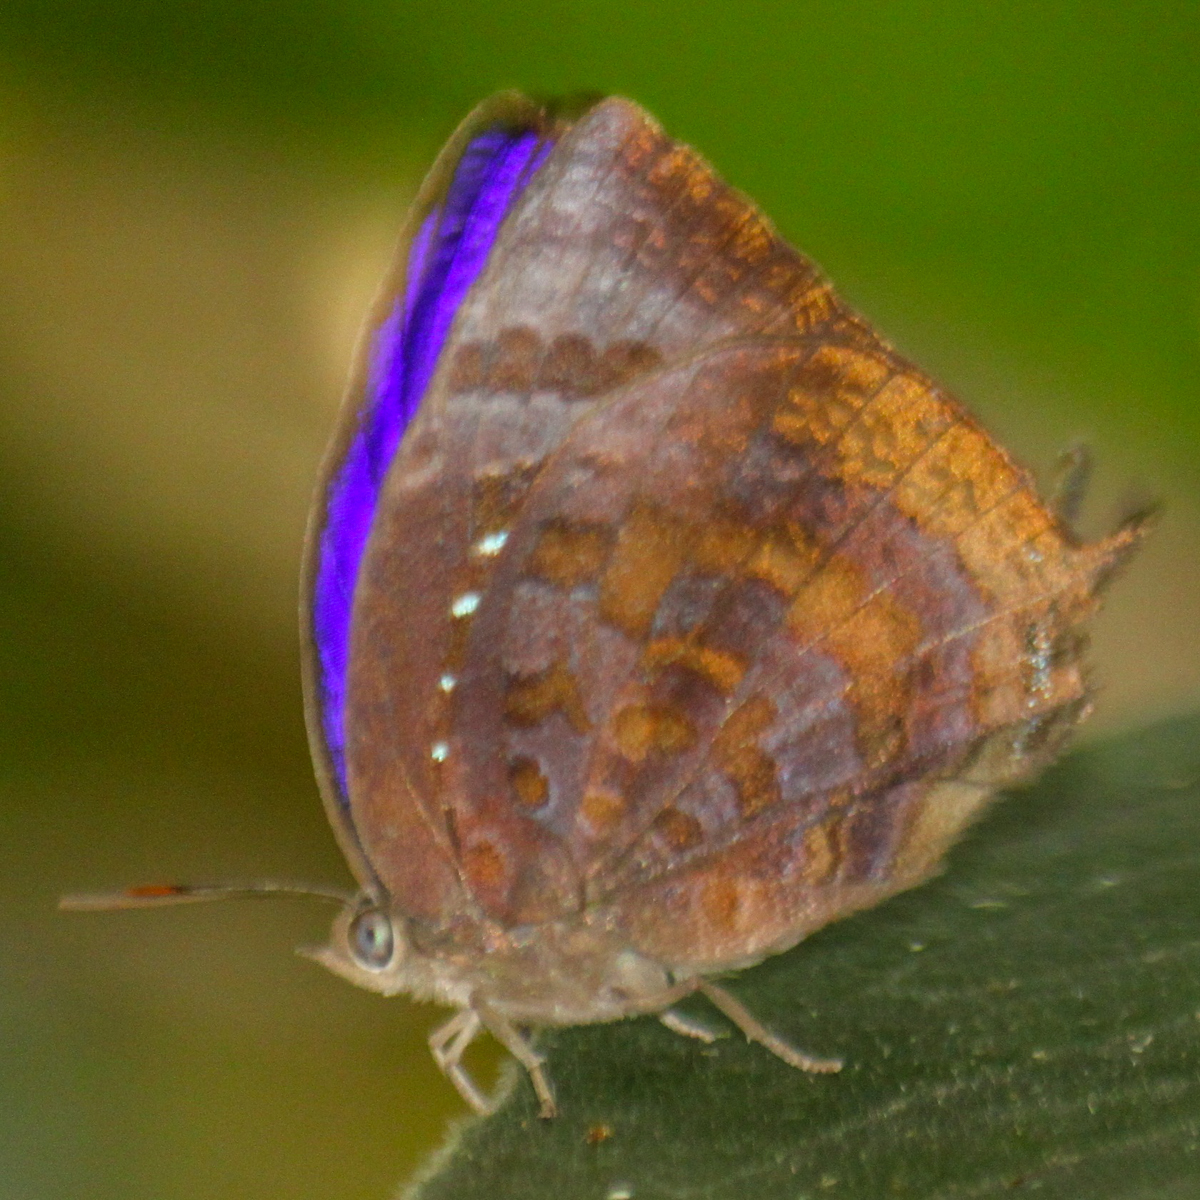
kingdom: Animalia
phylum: Arthropoda
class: Insecta
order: Lepidoptera
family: Lycaenidae
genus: Arhopala
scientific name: Arhopala centaurus
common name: Dull oak-blue
